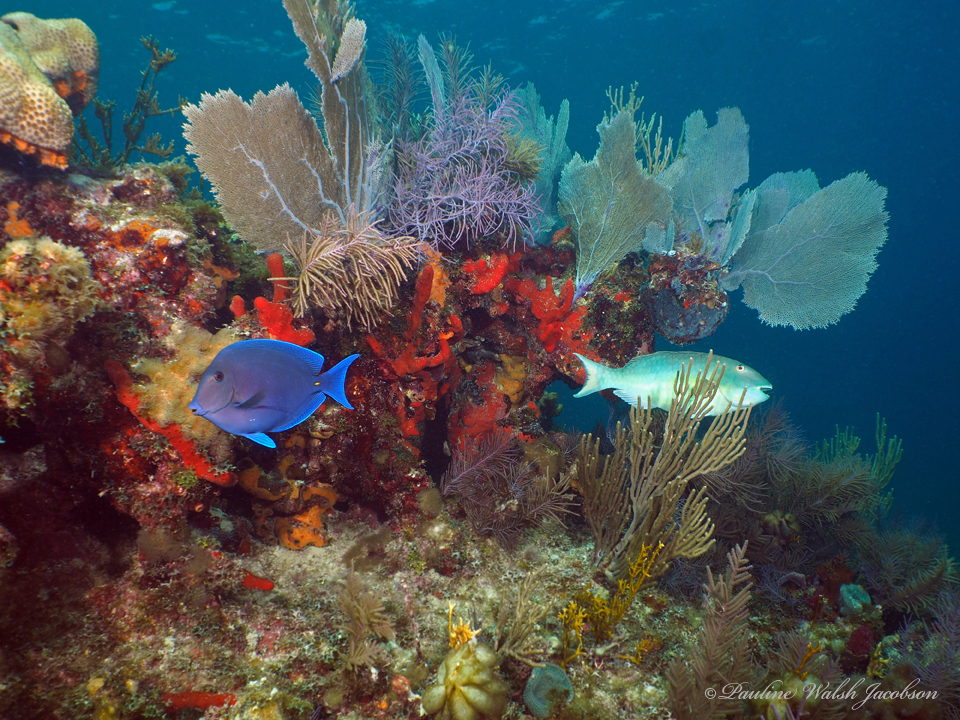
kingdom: Animalia
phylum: Chordata
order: Perciformes
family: Scaridae
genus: Sparisoma
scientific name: Sparisoma rubripinne
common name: Redfin parrotfish
